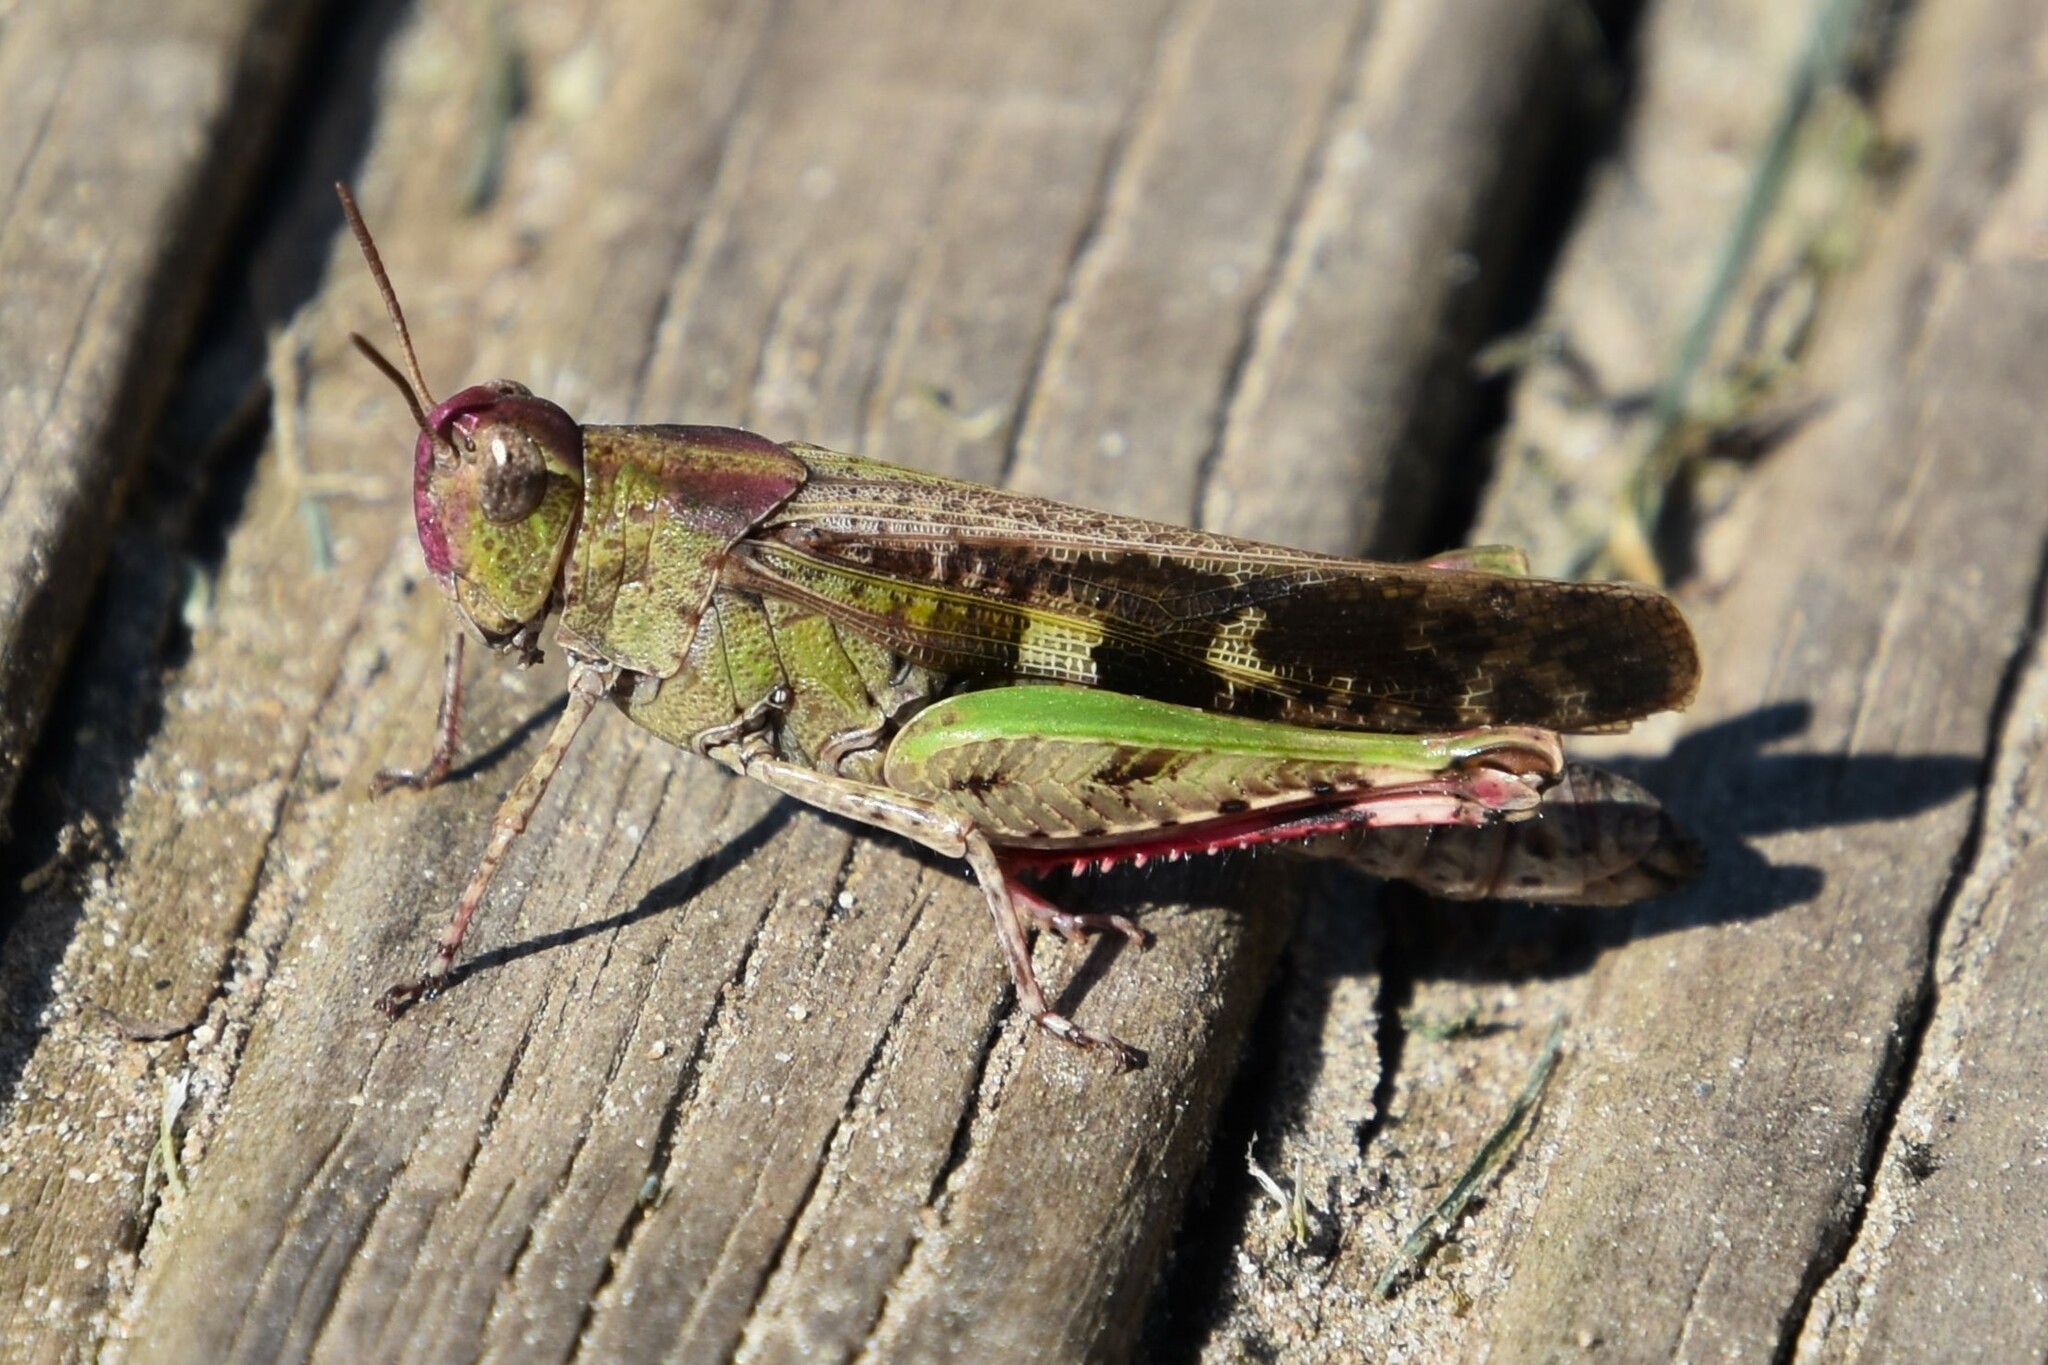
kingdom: Animalia
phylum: Arthropoda
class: Insecta
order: Orthoptera
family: Acrididae
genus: Aiolopus
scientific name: Aiolopus strepens
